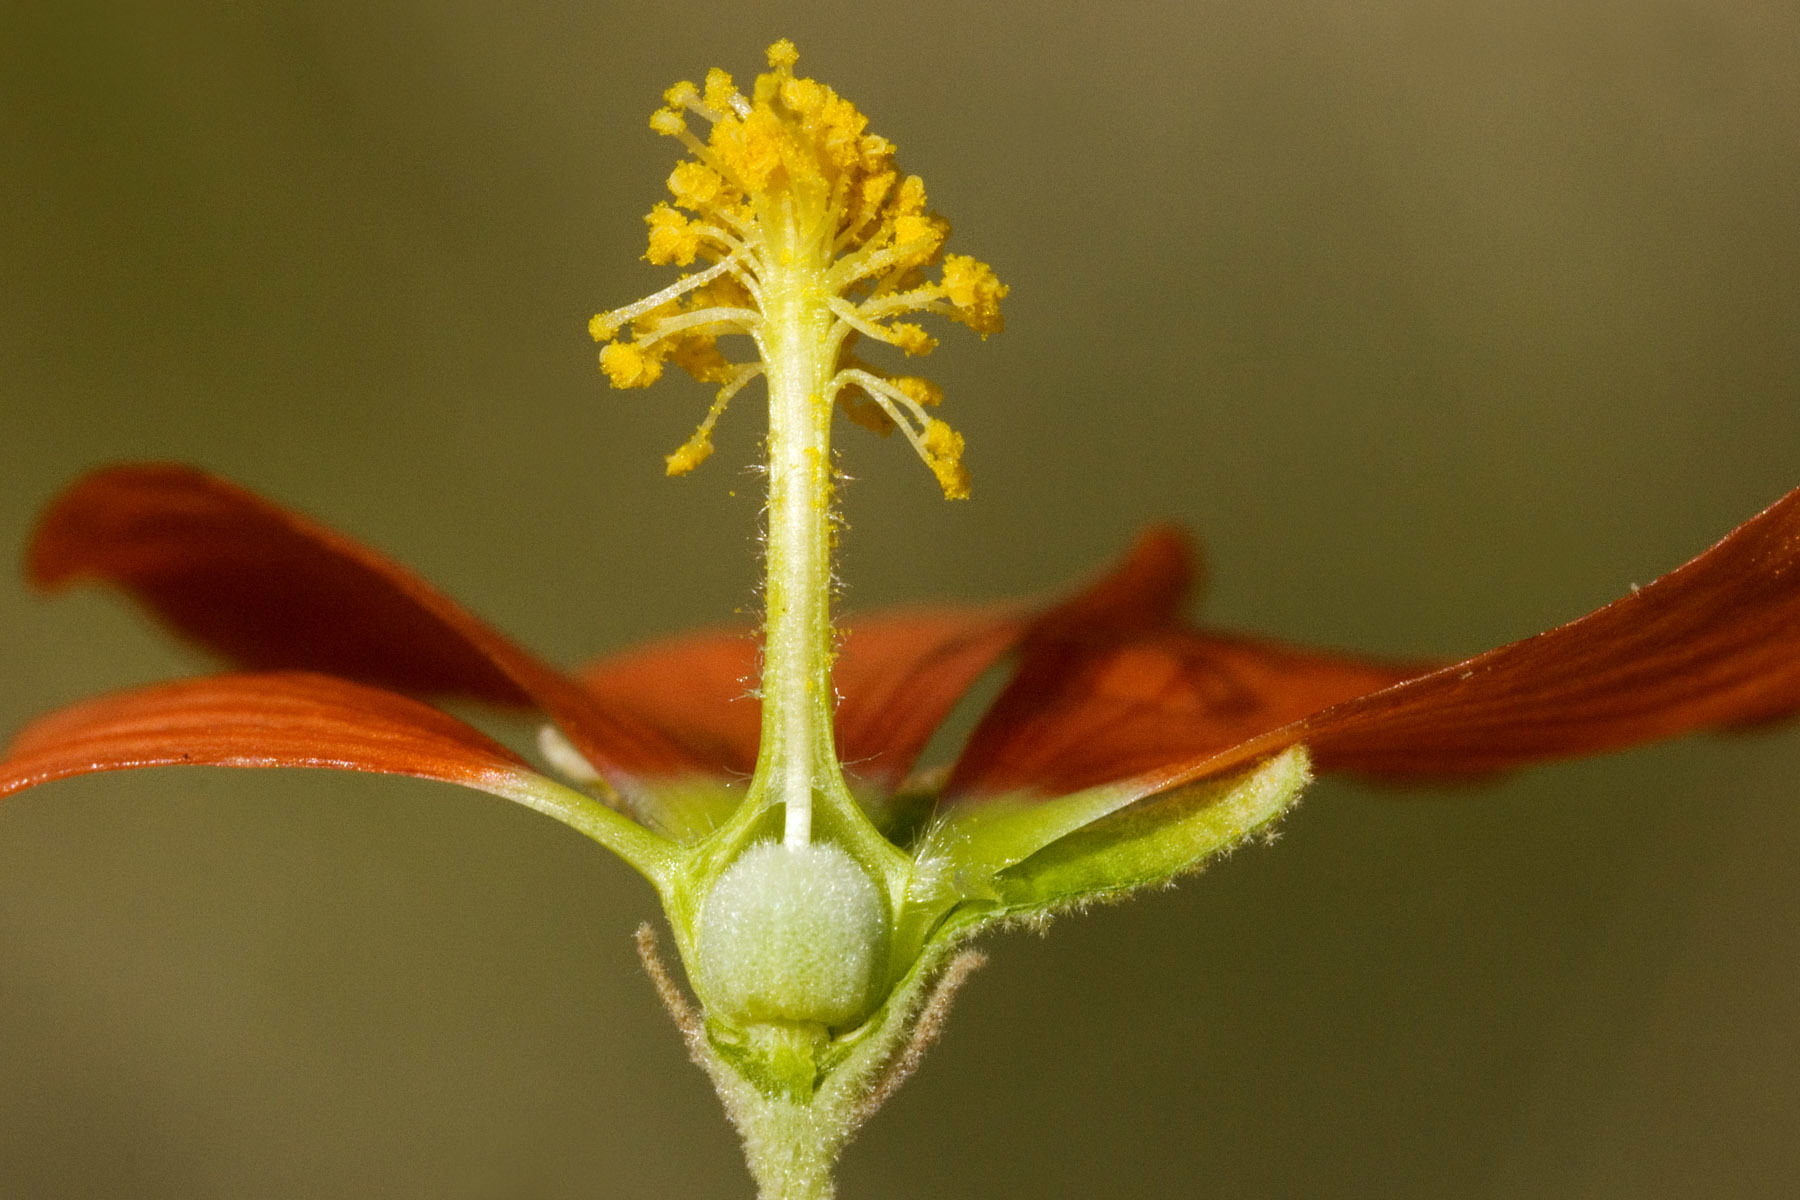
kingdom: Plantae
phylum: Tracheophyta
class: Magnoliopsida
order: Malvales
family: Malvaceae
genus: Sphaeralcea
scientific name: Sphaeralcea incana
